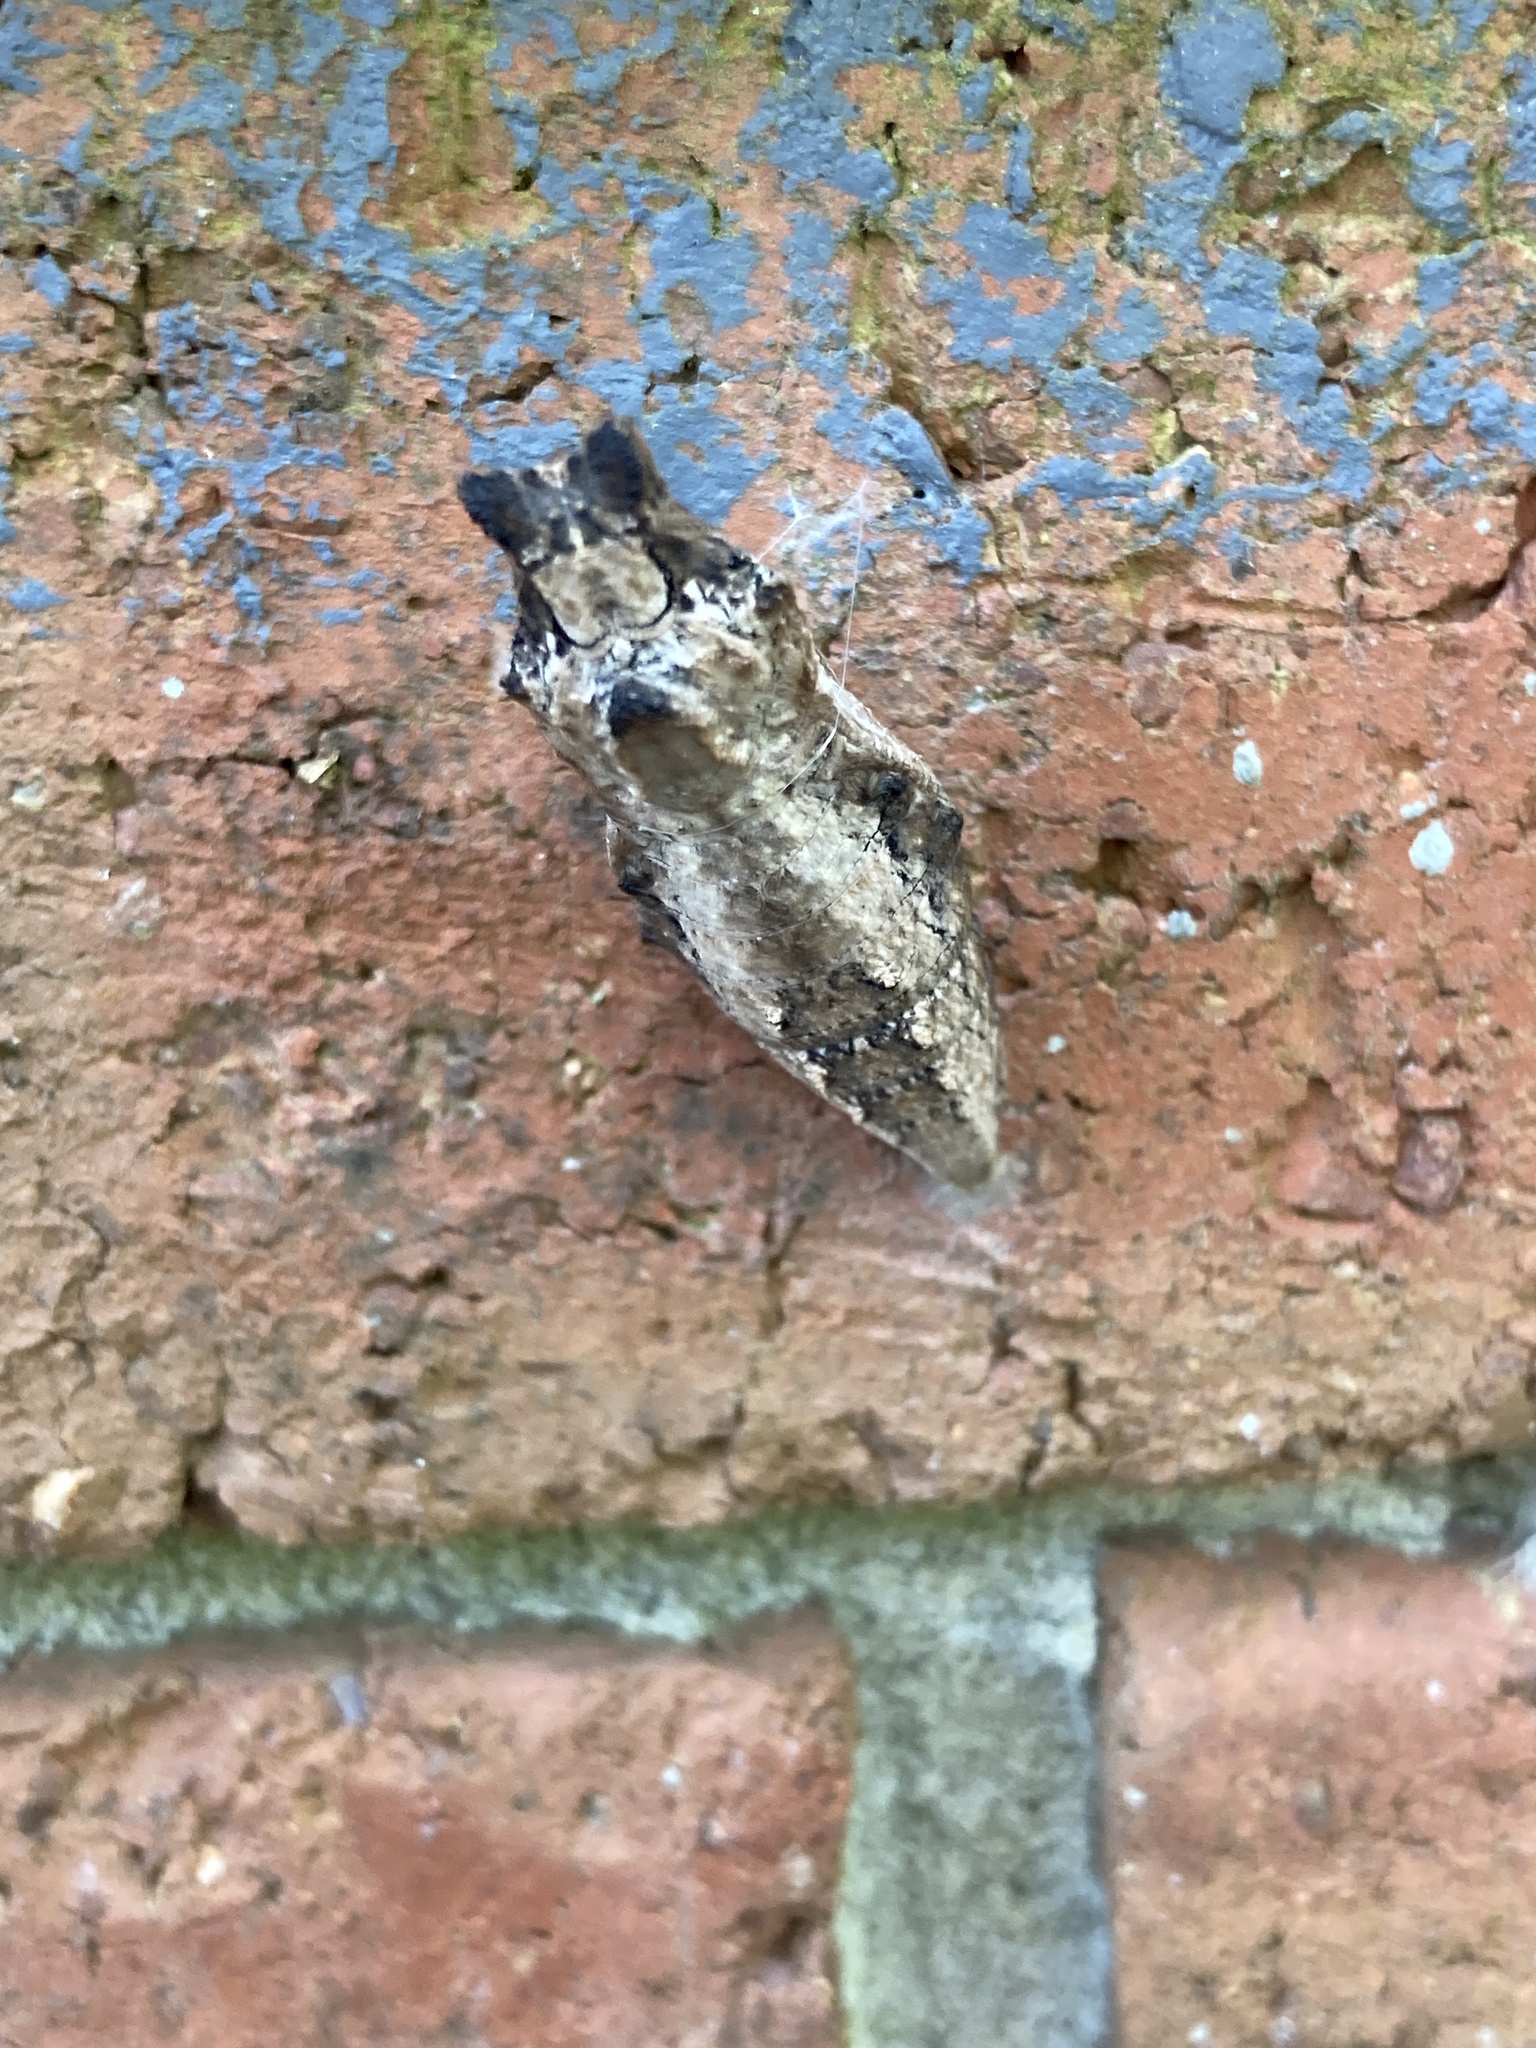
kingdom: Animalia
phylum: Arthropoda
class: Insecta
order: Lepidoptera
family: Papilionidae
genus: Papilio
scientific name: Papilio polyxenes
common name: Black swallowtail
